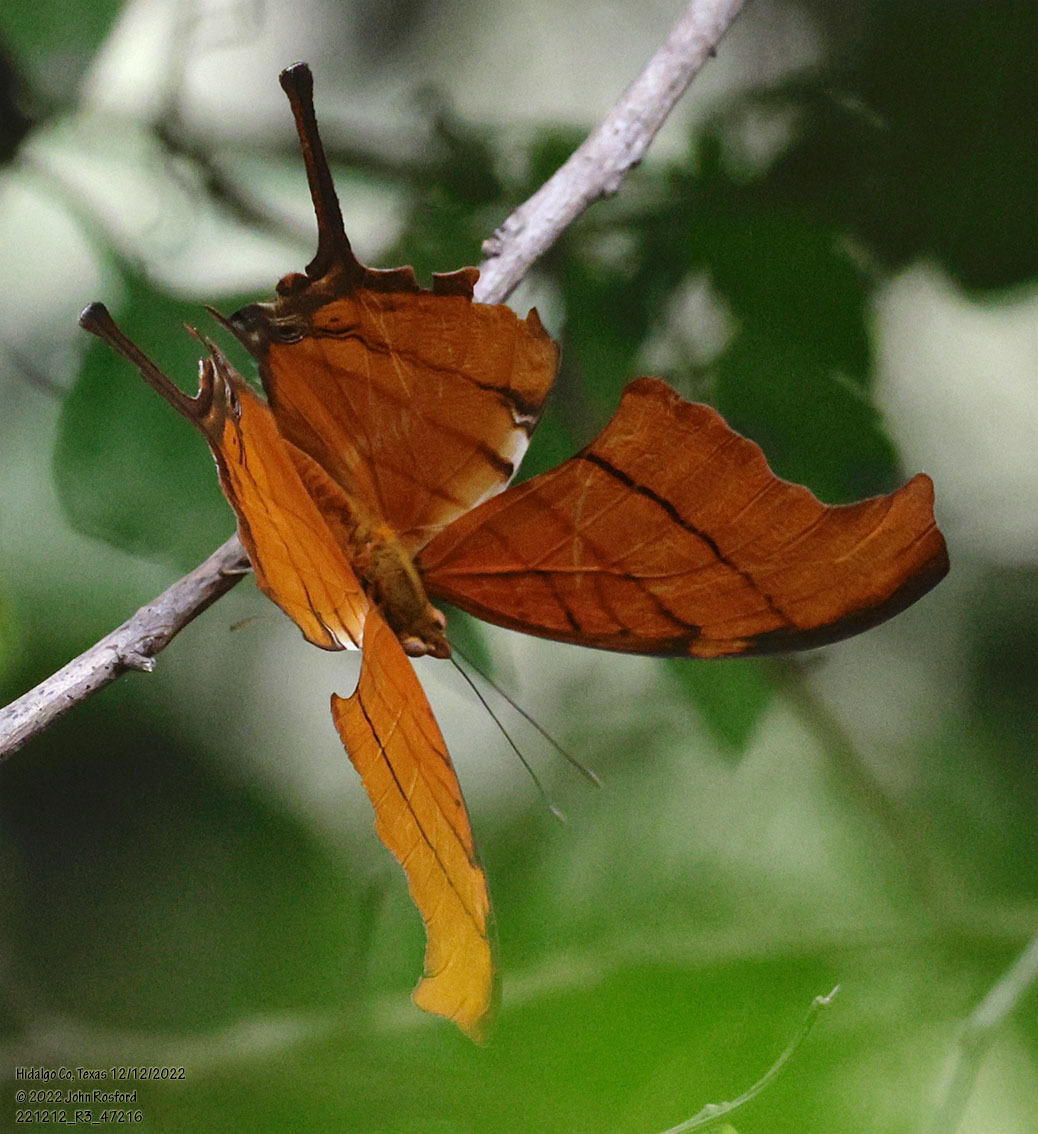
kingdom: Animalia
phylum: Arthropoda
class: Insecta
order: Lepidoptera
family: Nymphalidae
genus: Marpesia
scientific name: Marpesia petreus
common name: Red dagger wing
